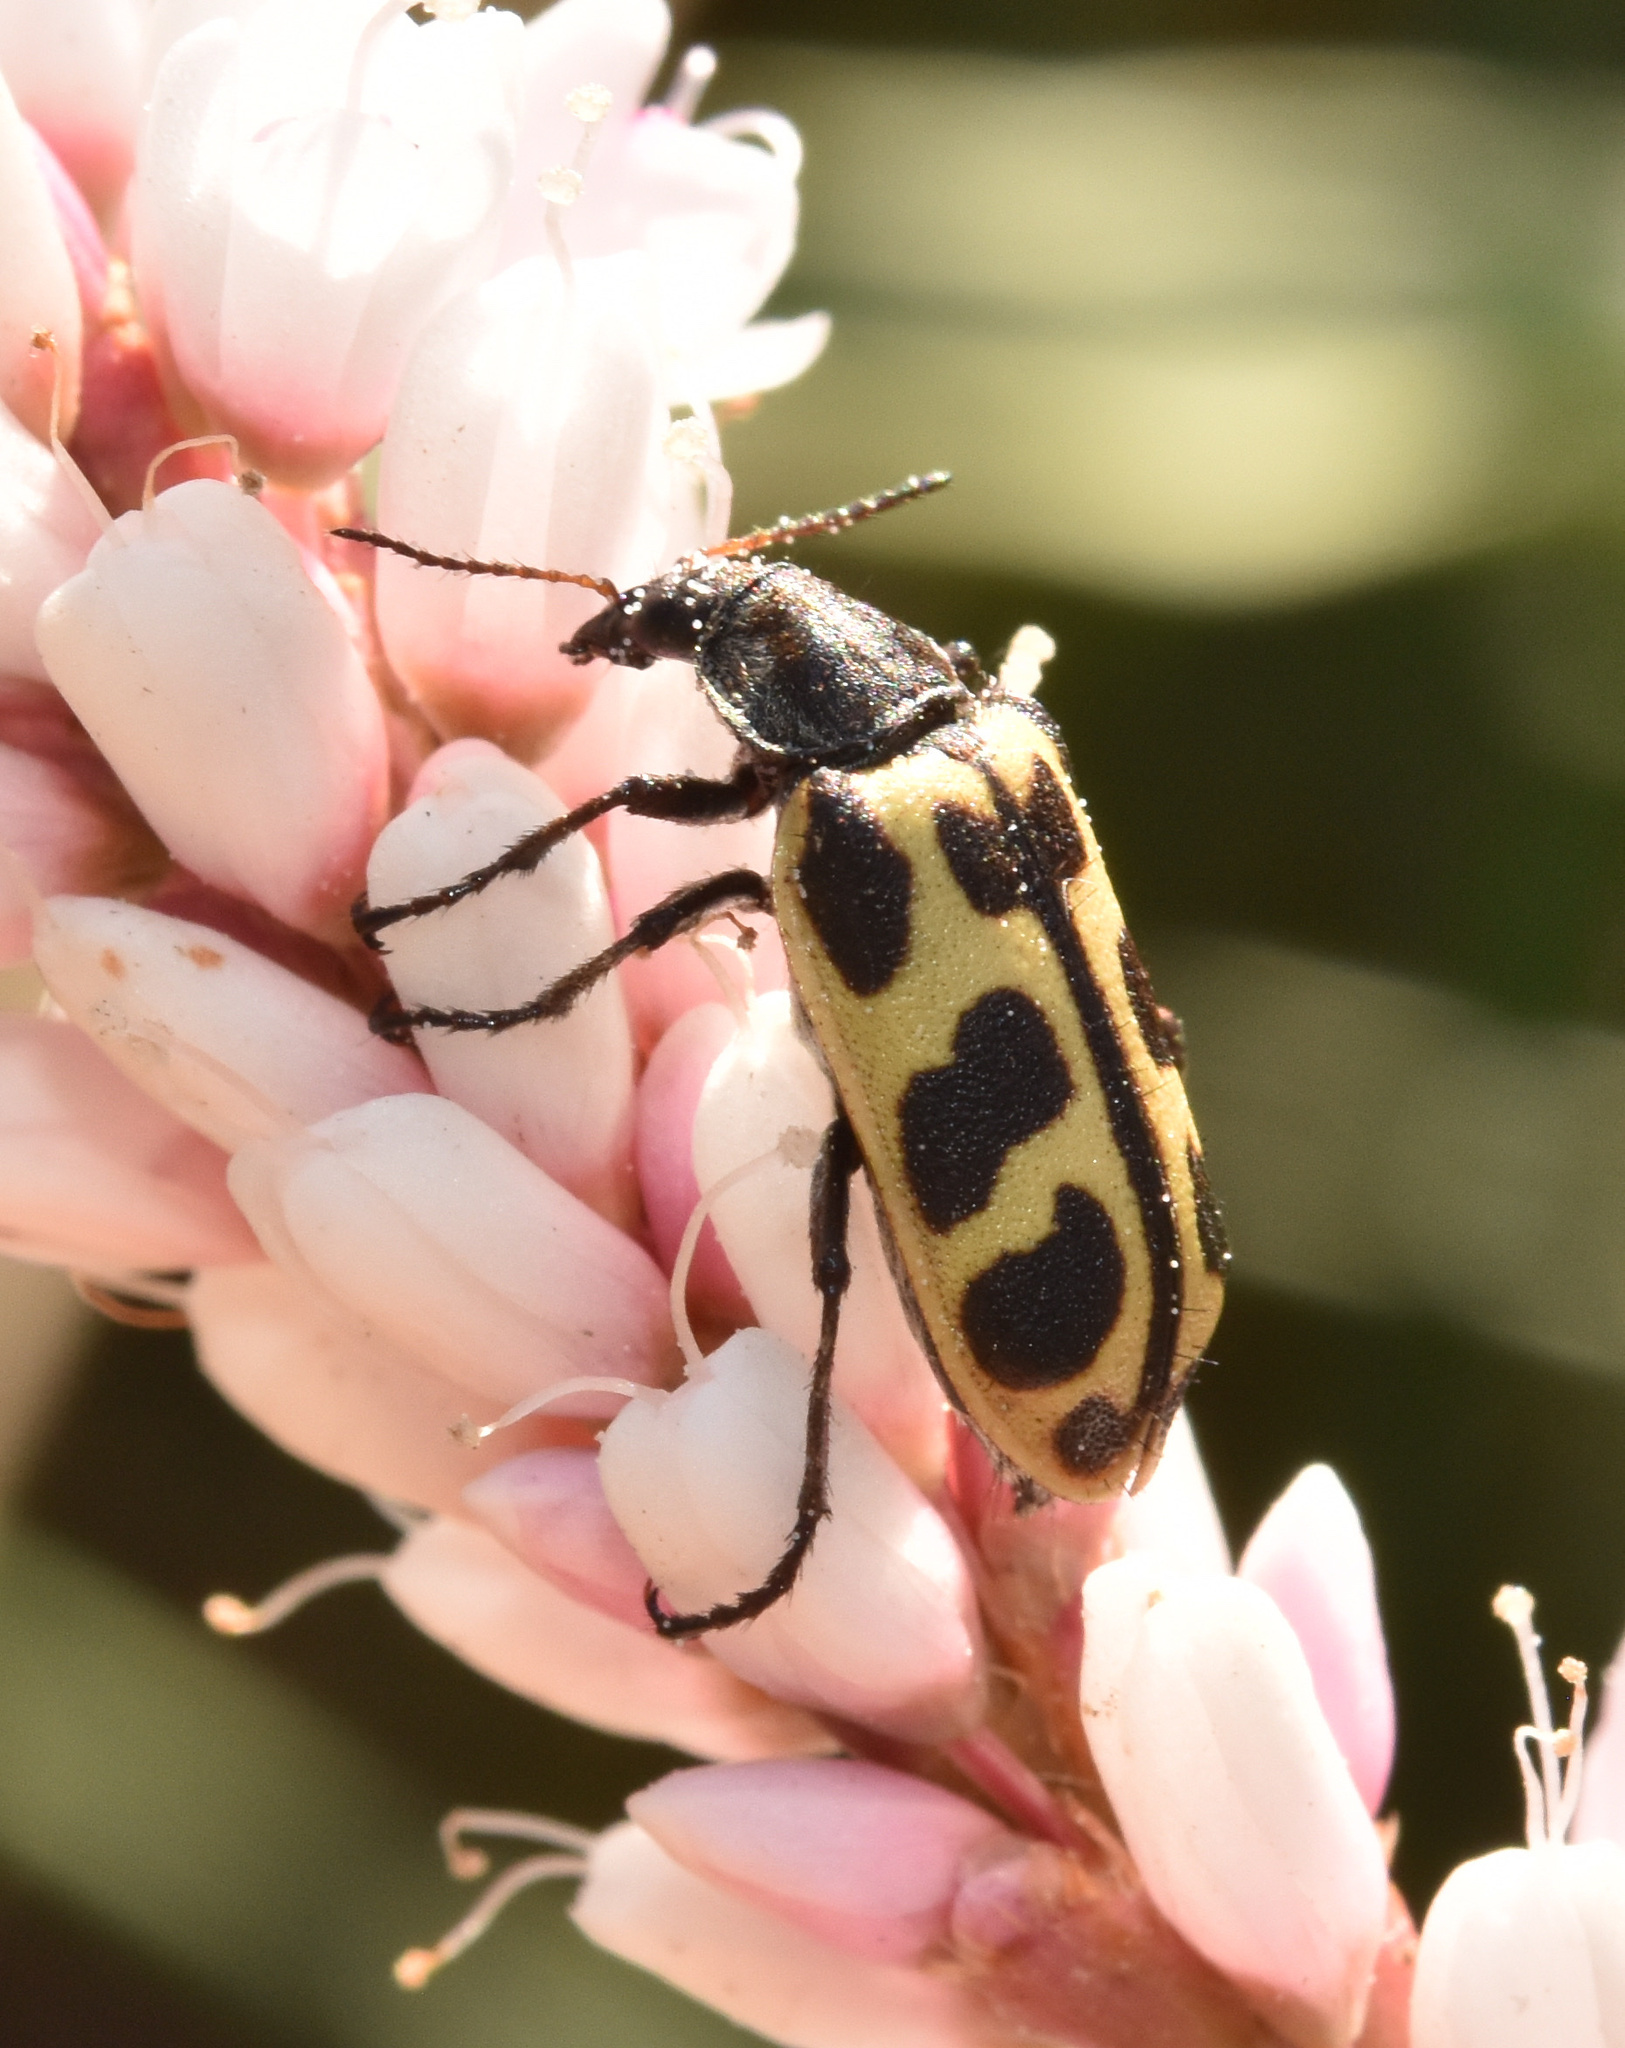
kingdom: Animalia
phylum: Arthropoda
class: Insecta
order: Coleoptera
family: Melyridae
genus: Astylus
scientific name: Astylus atromaculatus
